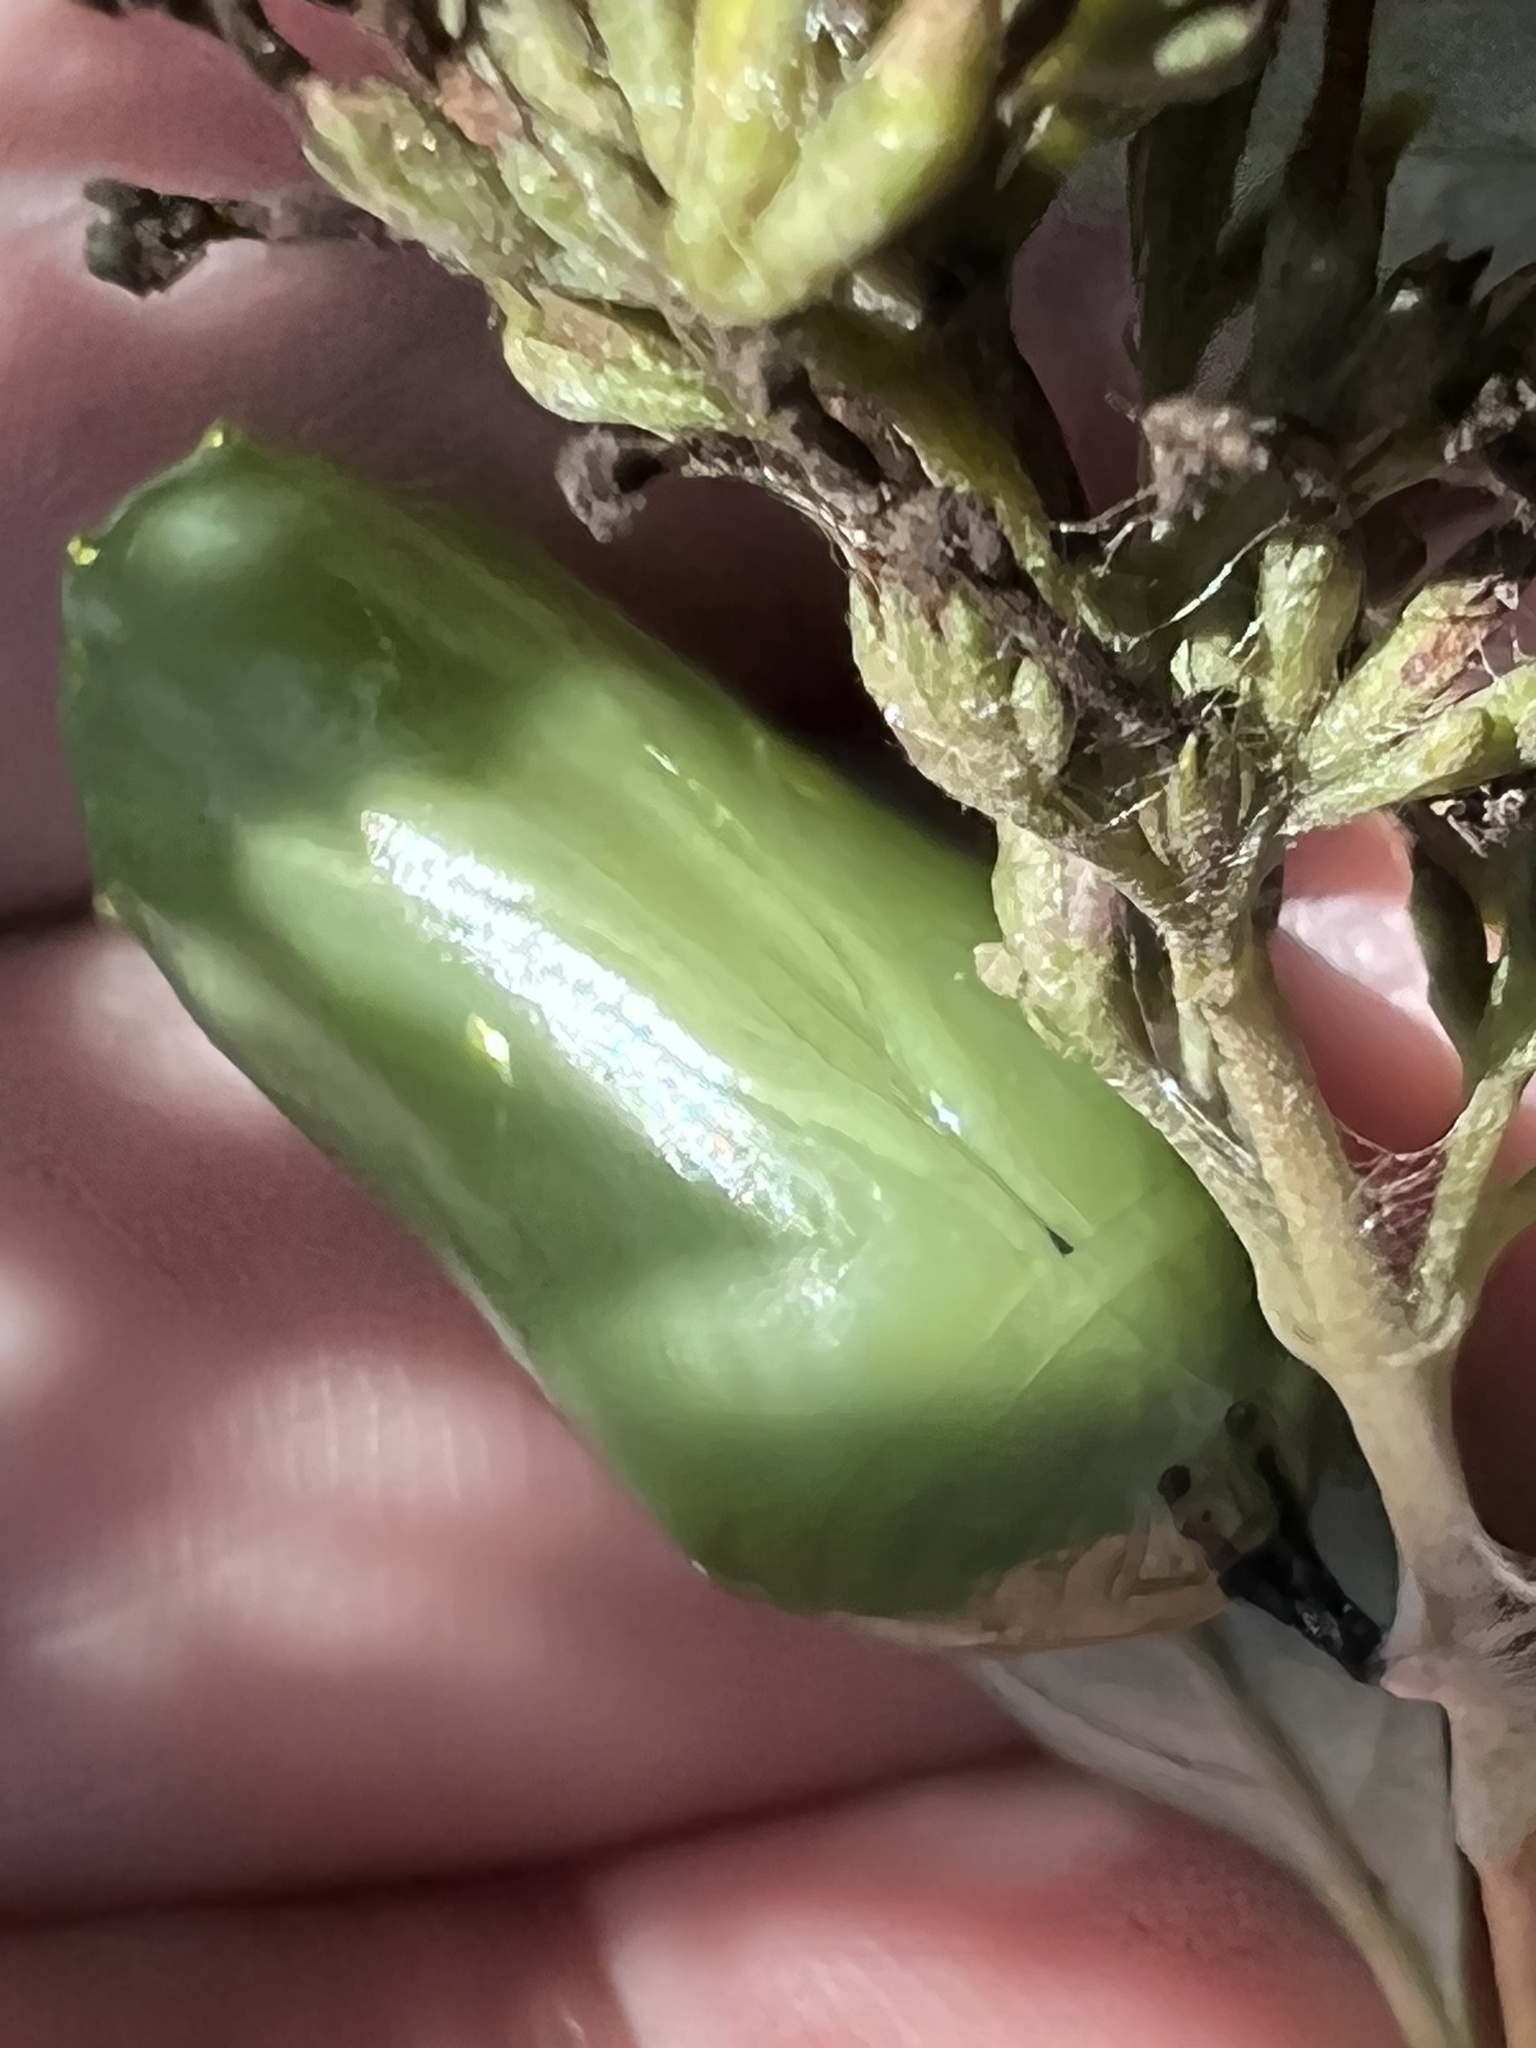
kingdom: Animalia
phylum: Arthropoda
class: Insecta
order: Lepidoptera
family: Nymphalidae
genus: Danaus
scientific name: Danaus plexippus
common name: Monarch
